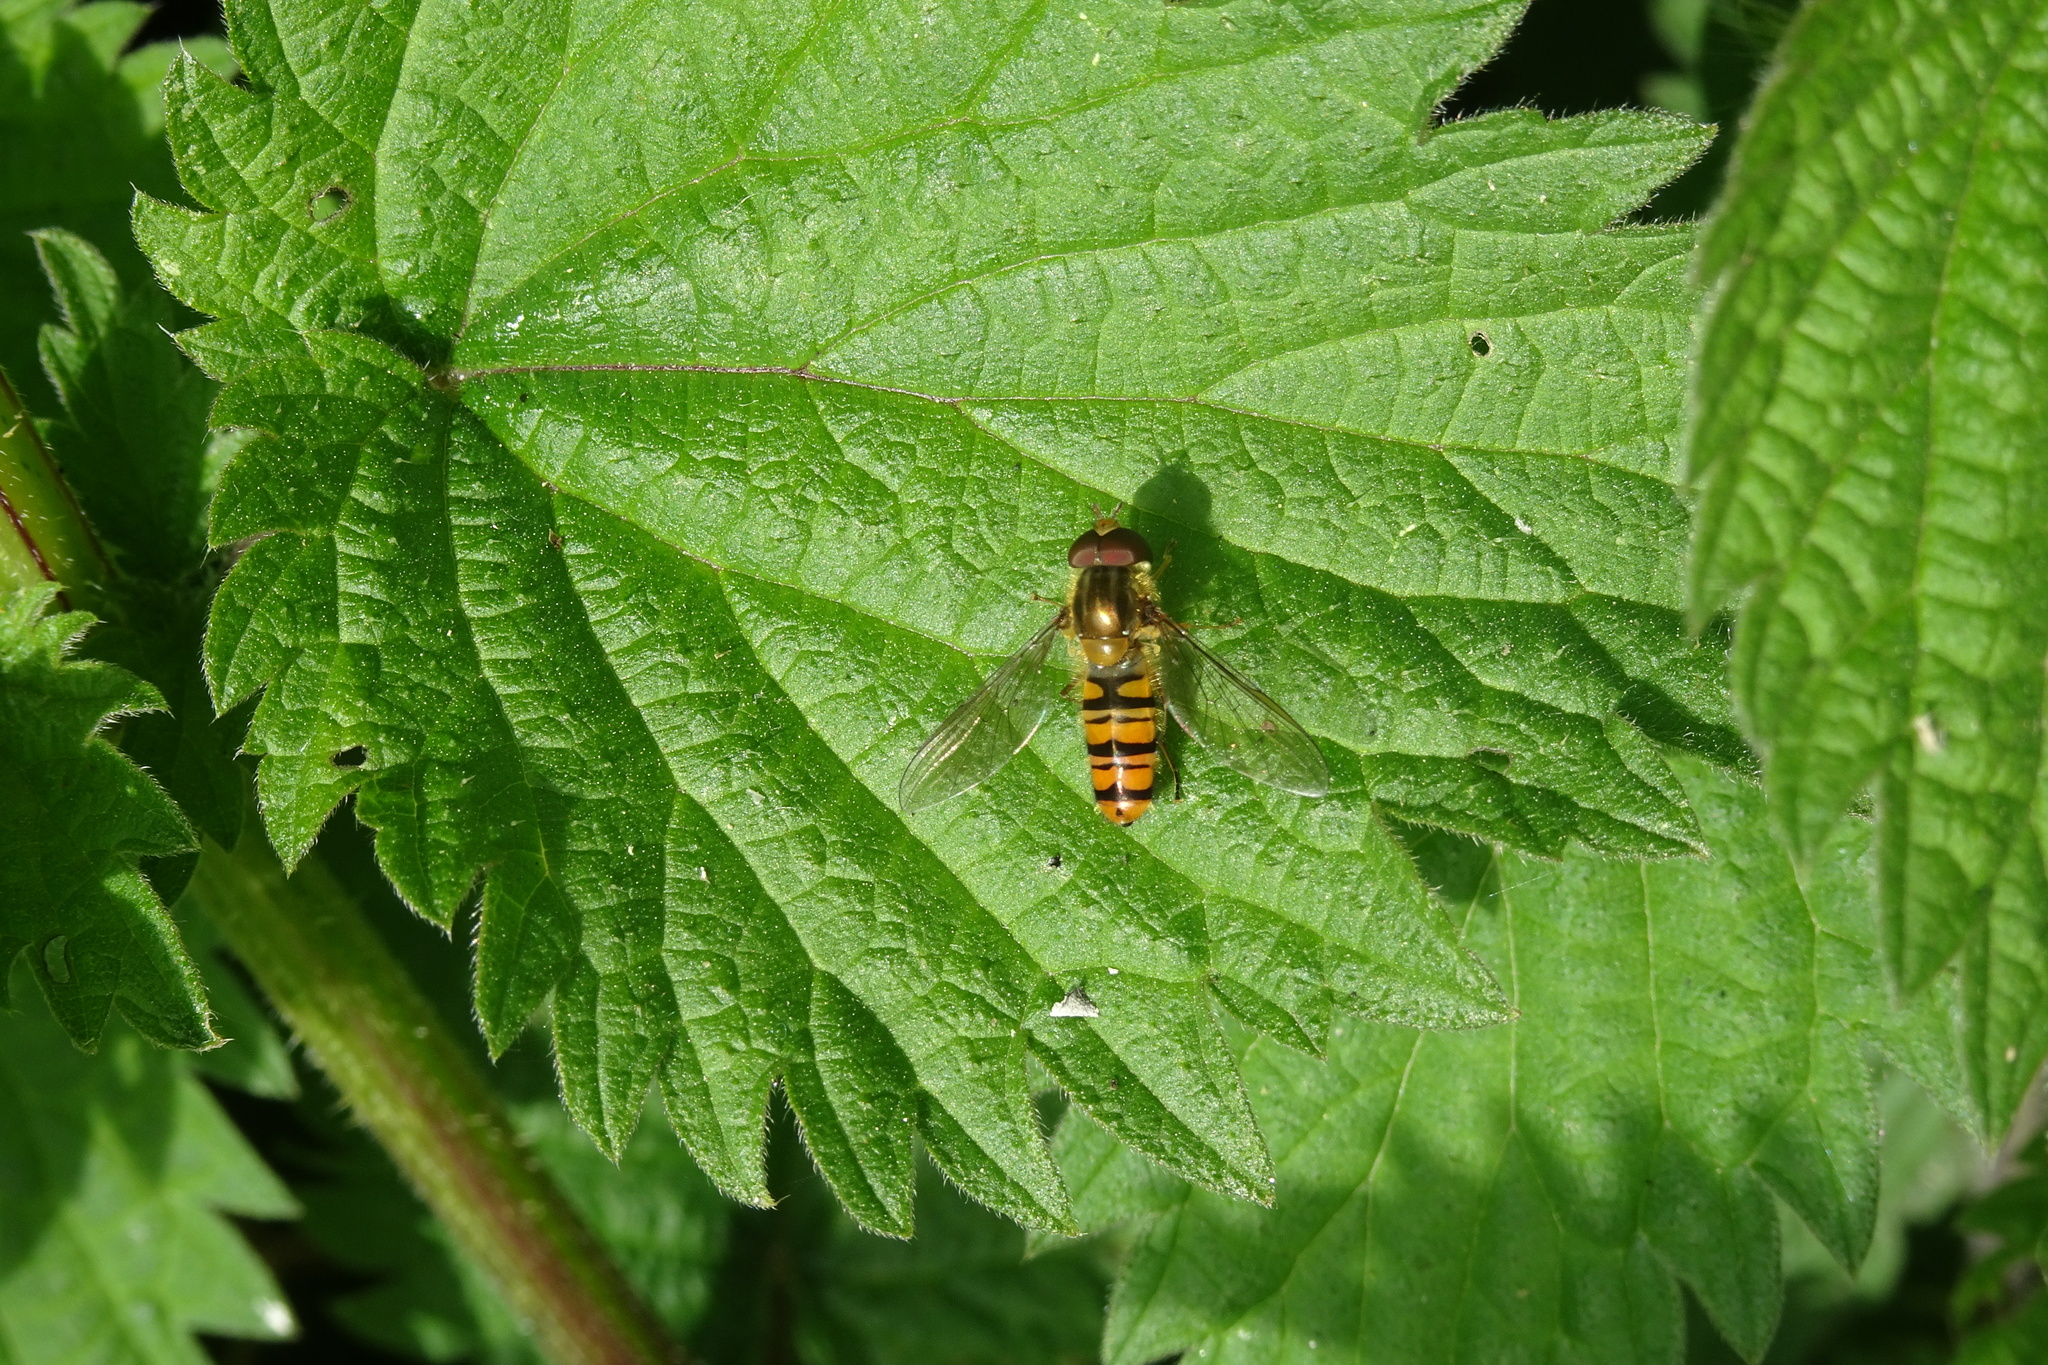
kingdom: Animalia
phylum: Arthropoda
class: Insecta
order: Diptera
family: Syrphidae
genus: Episyrphus
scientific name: Episyrphus balteatus
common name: Marmalade hoverfly
